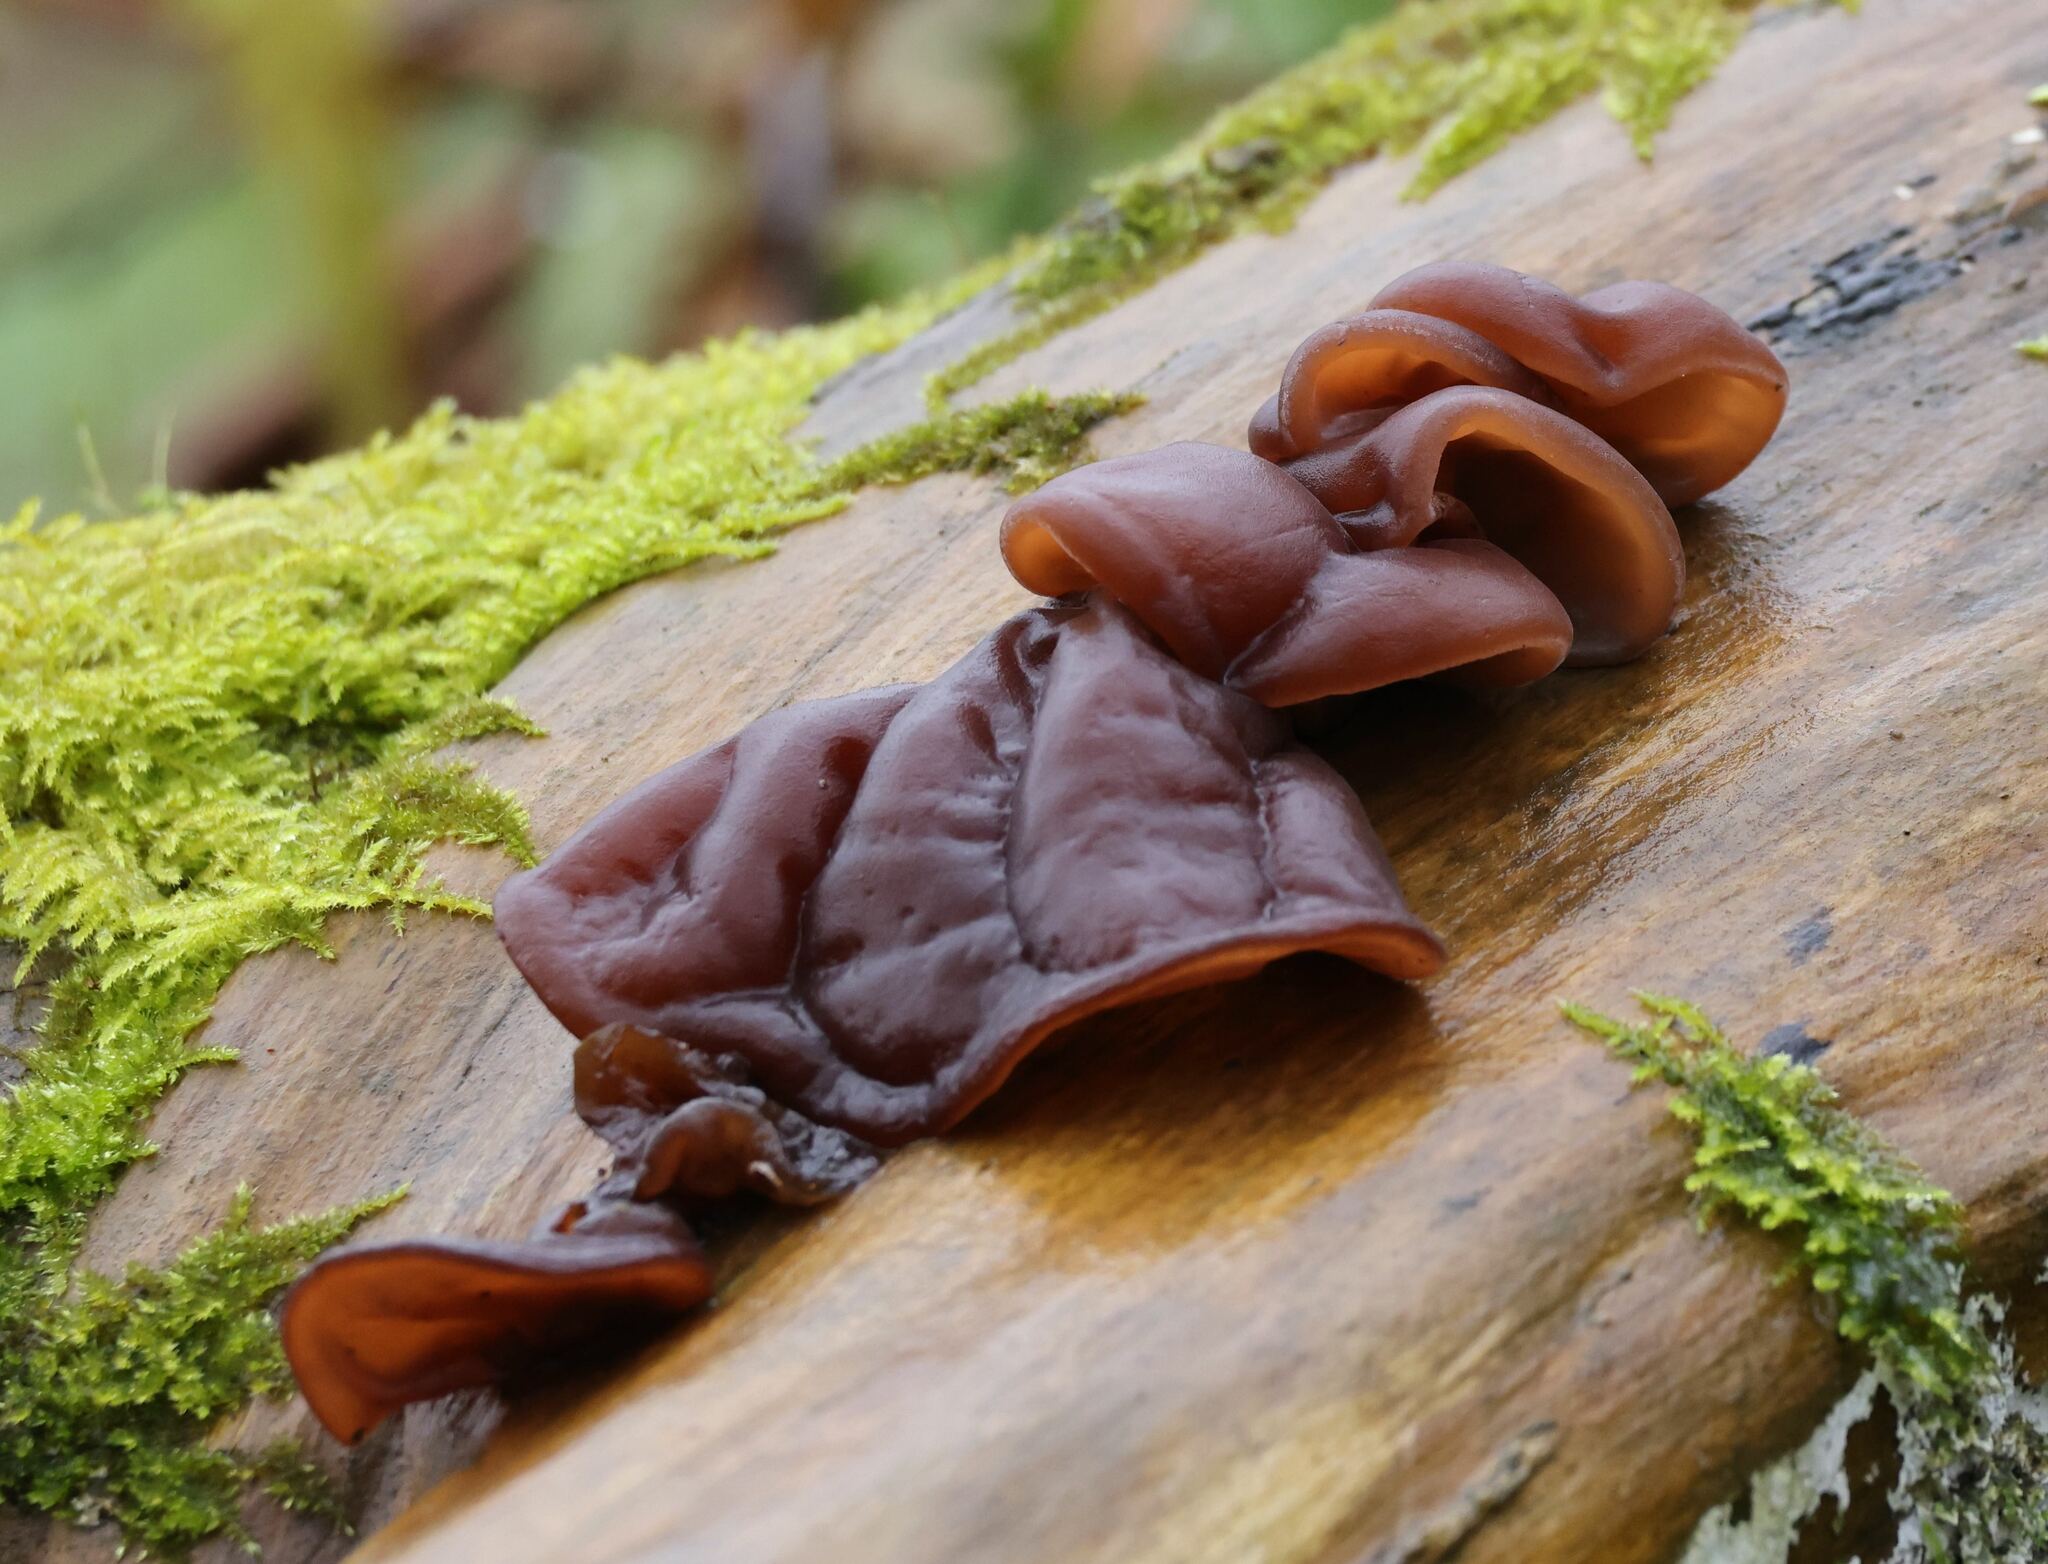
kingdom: Fungi
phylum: Basidiomycota
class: Agaricomycetes
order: Auriculariales
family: Auriculariaceae
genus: Auricularia
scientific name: Auricularia auricula-judae
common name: Jelly ear
